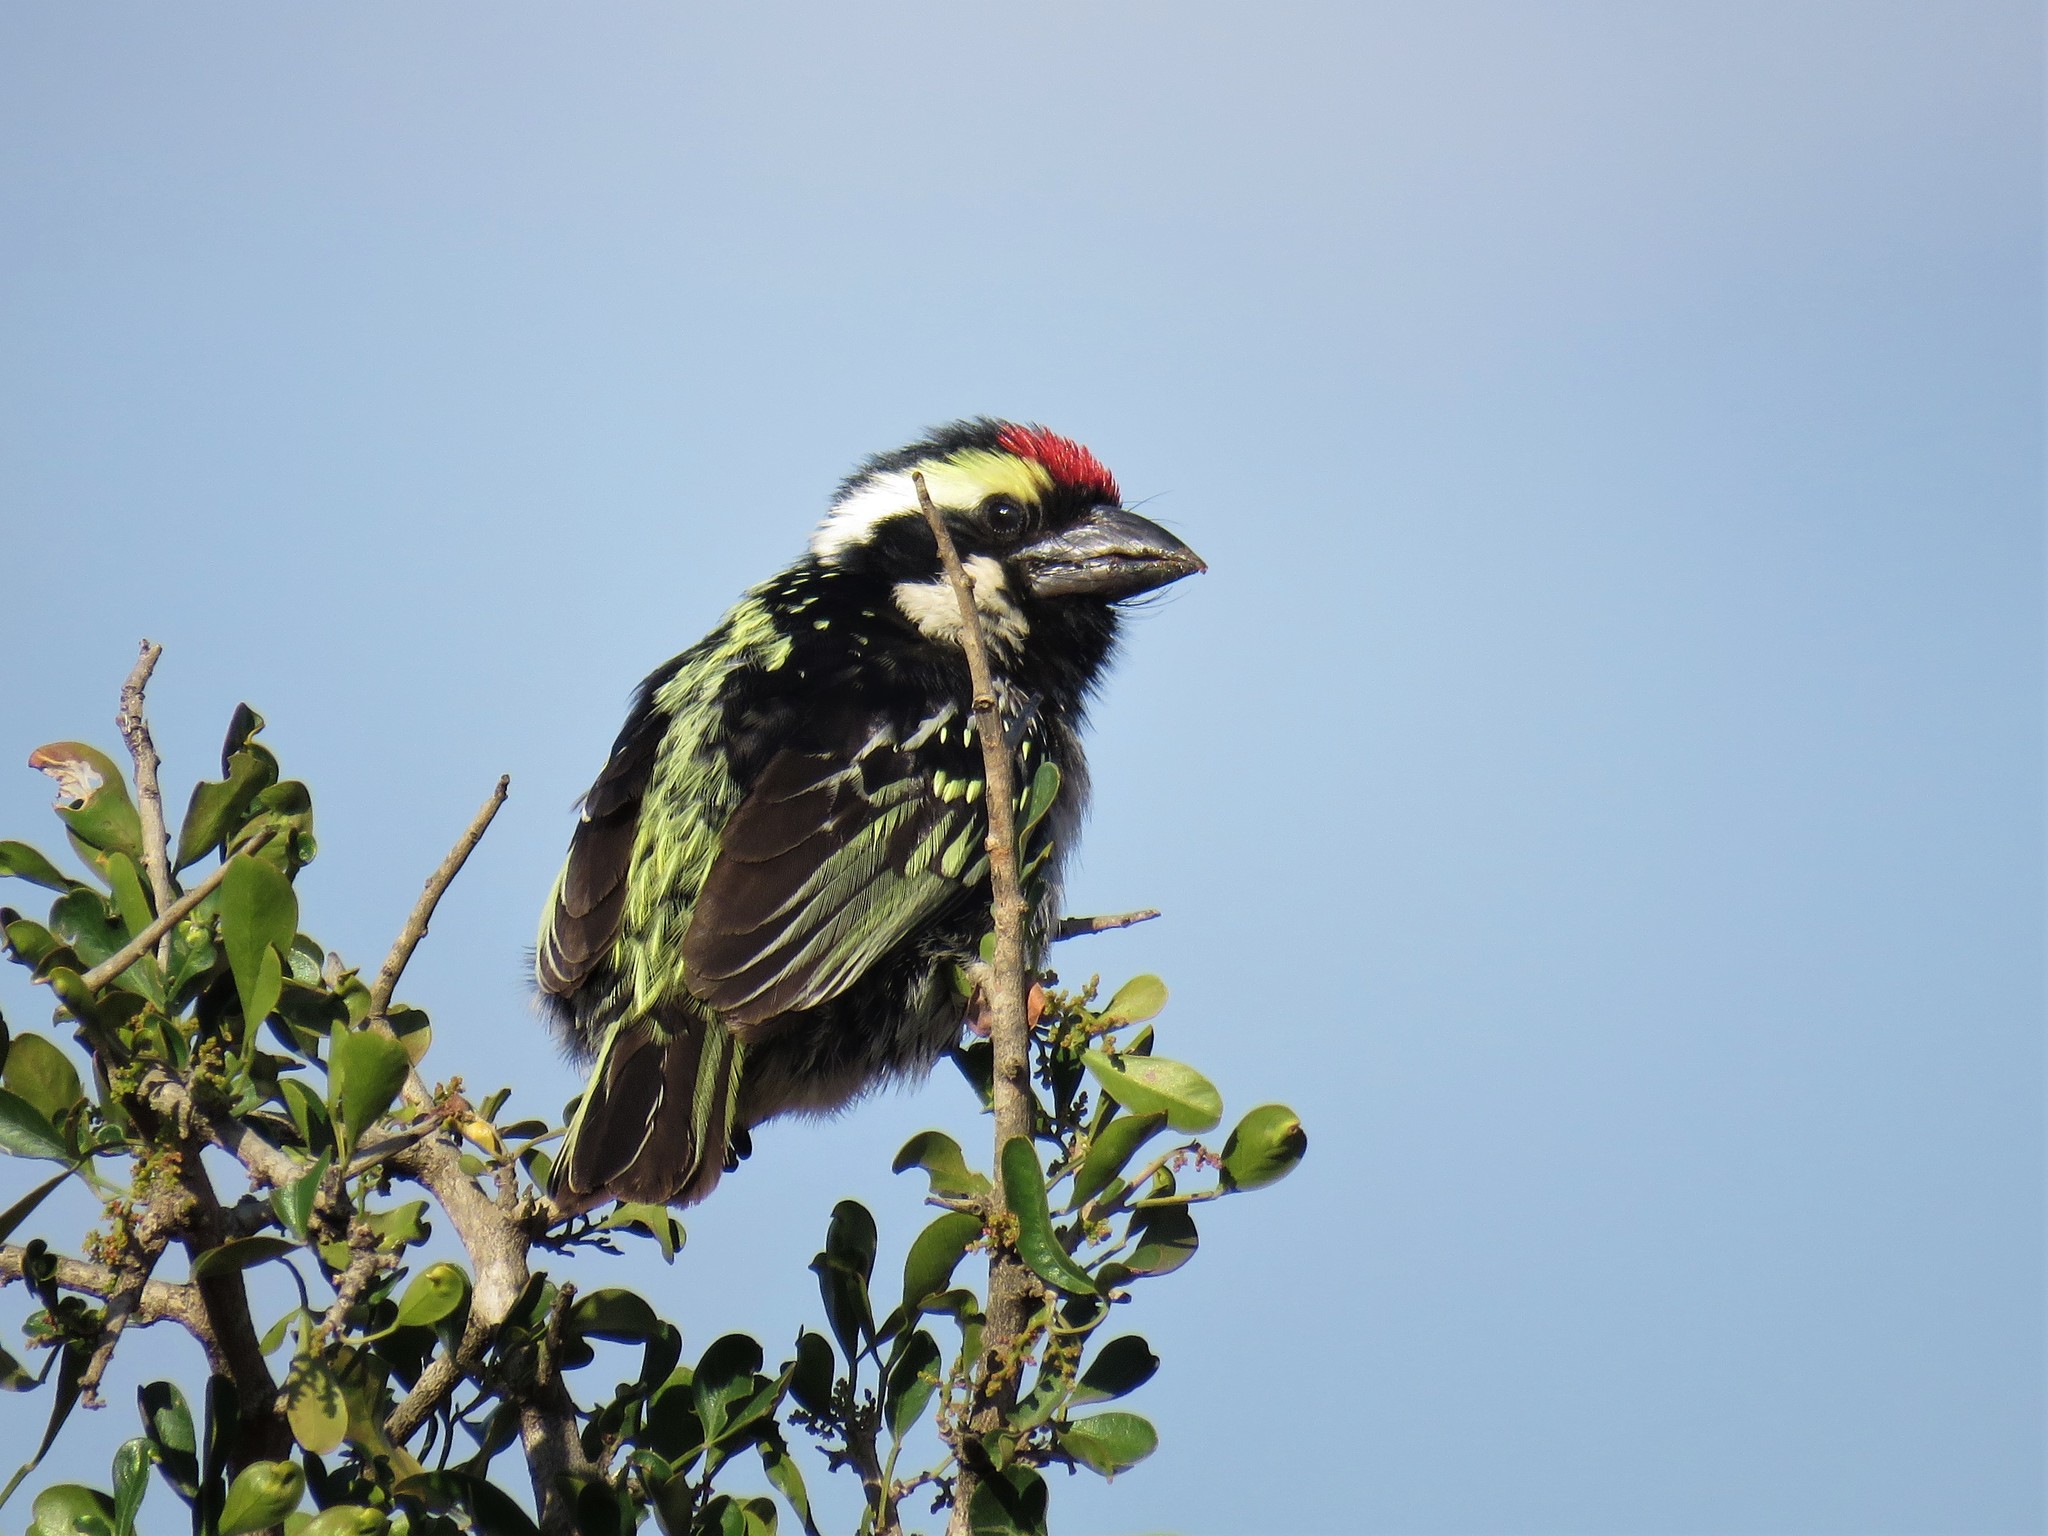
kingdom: Animalia
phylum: Chordata
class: Aves
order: Piciformes
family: Lybiidae
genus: Tricholaema
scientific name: Tricholaema leucomelas
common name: Acacia pied barbet
